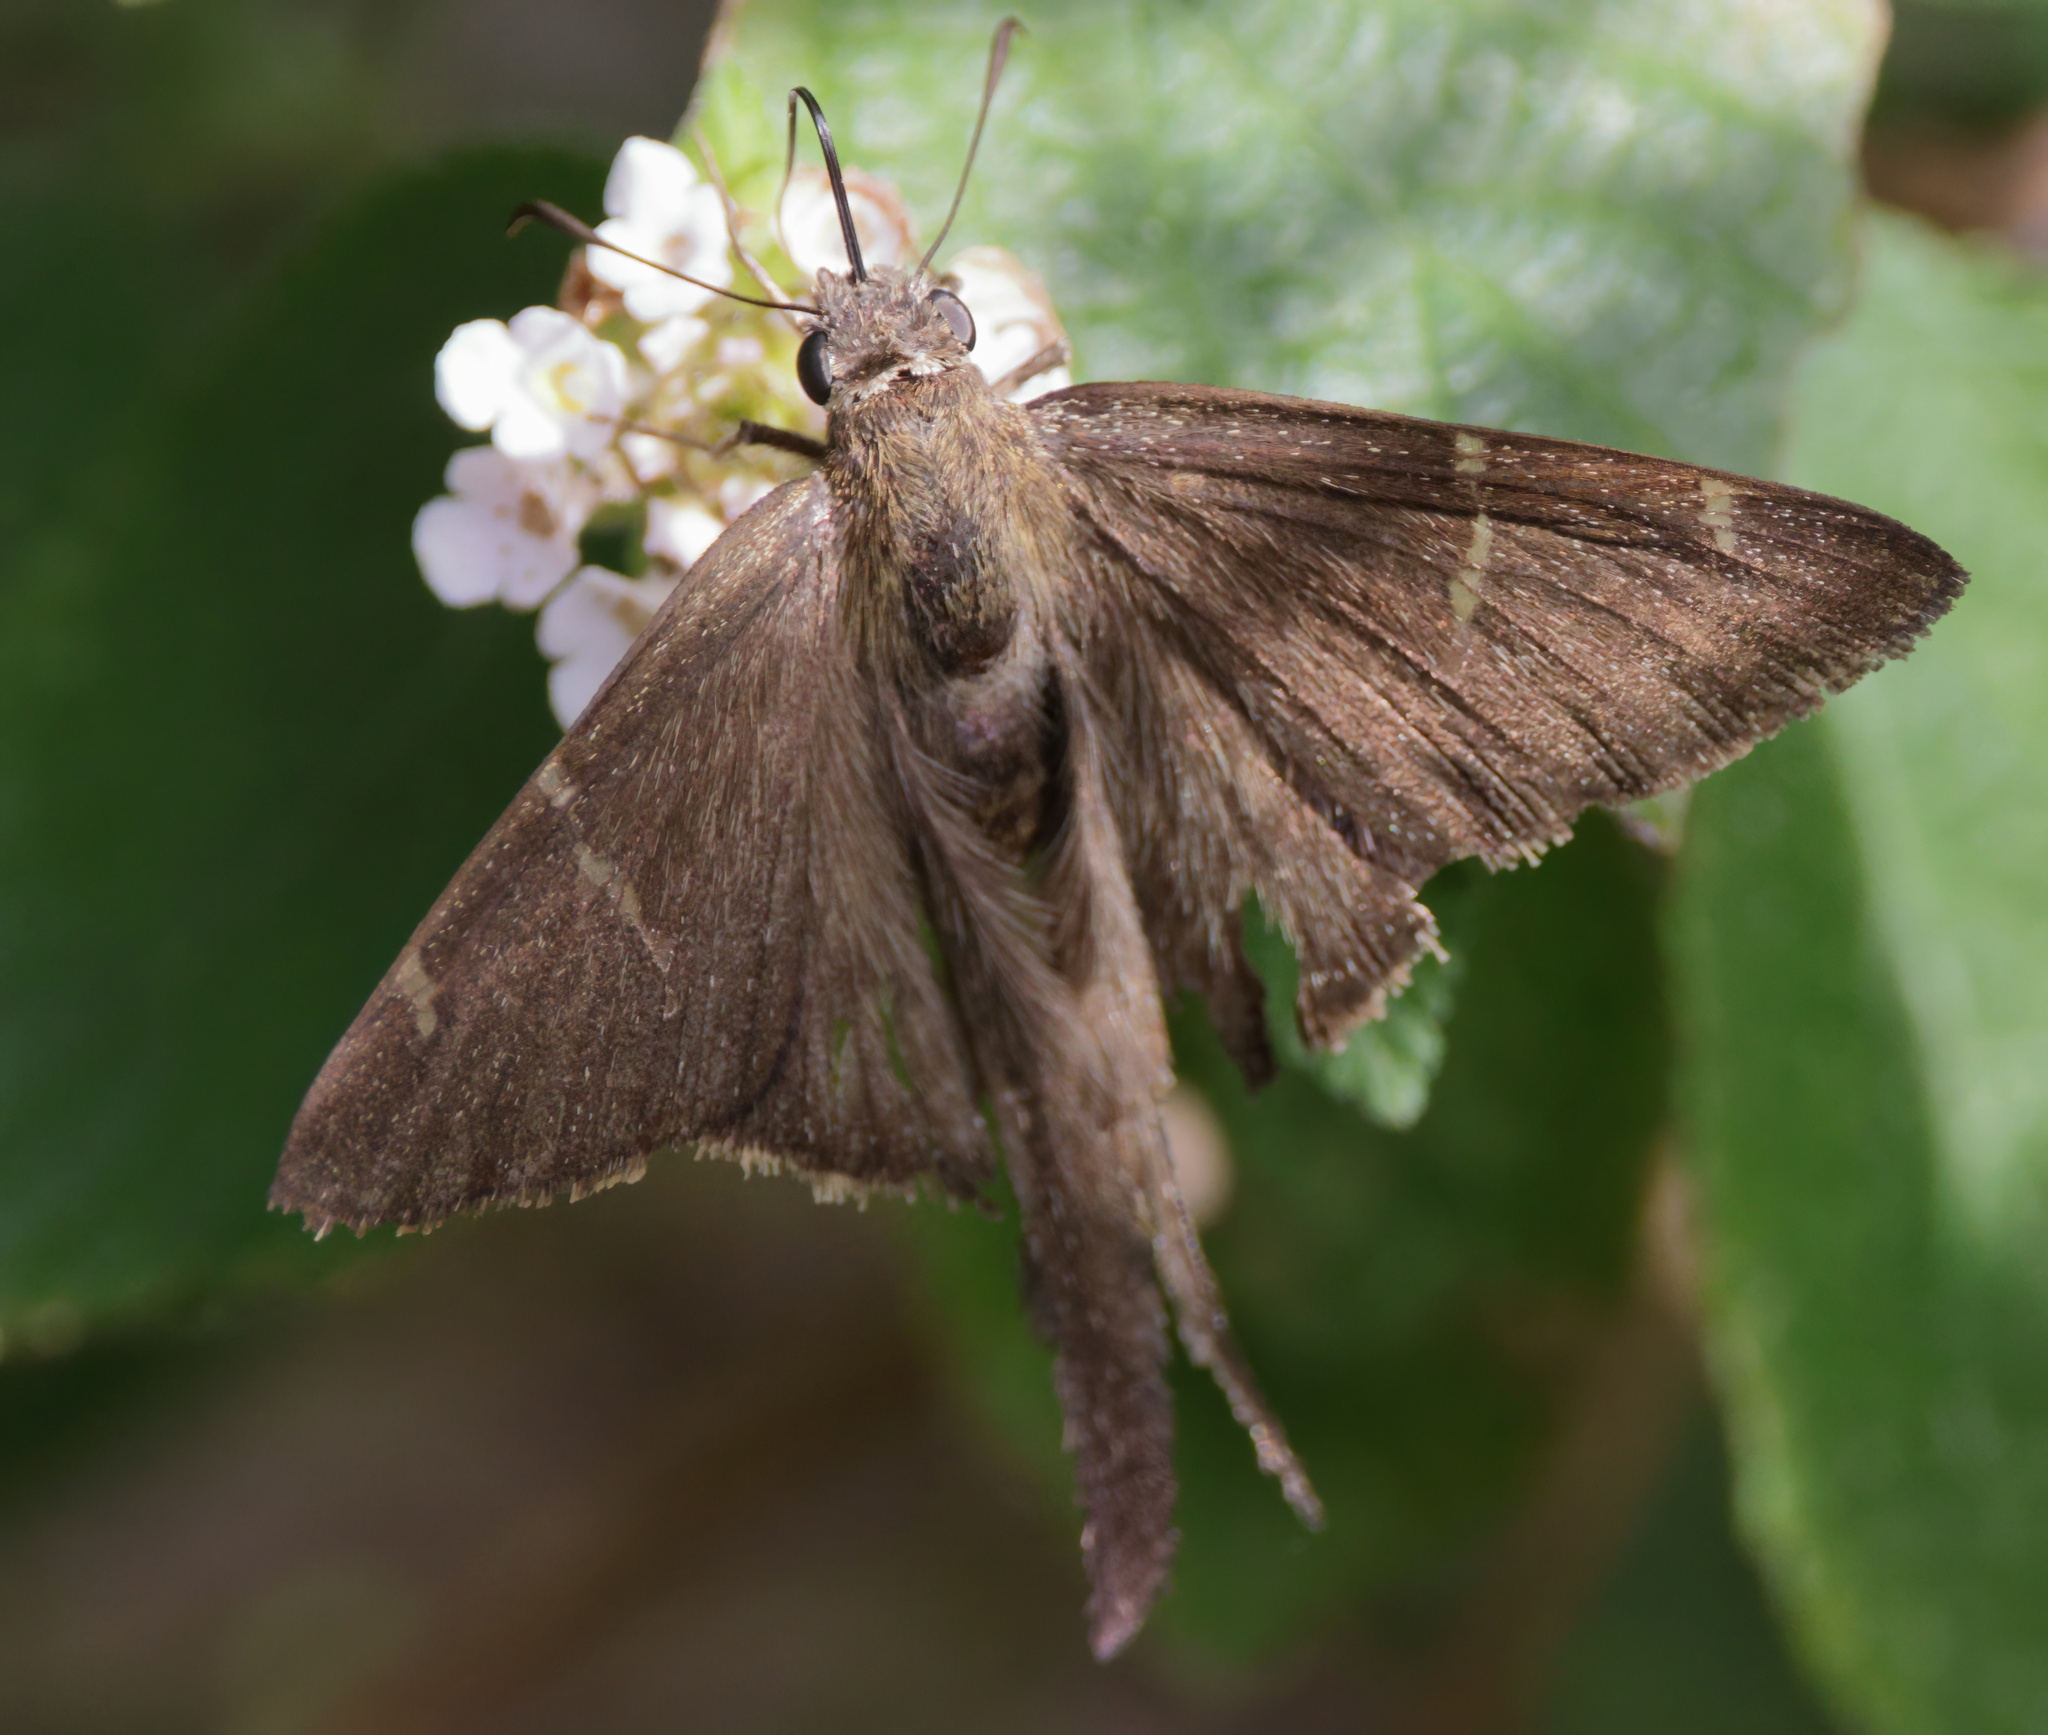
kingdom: Animalia
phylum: Arthropoda
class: Insecta
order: Lepidoptera
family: Hesperiidae
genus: Urbanus
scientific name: Urbanus procne
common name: Brown longtail
